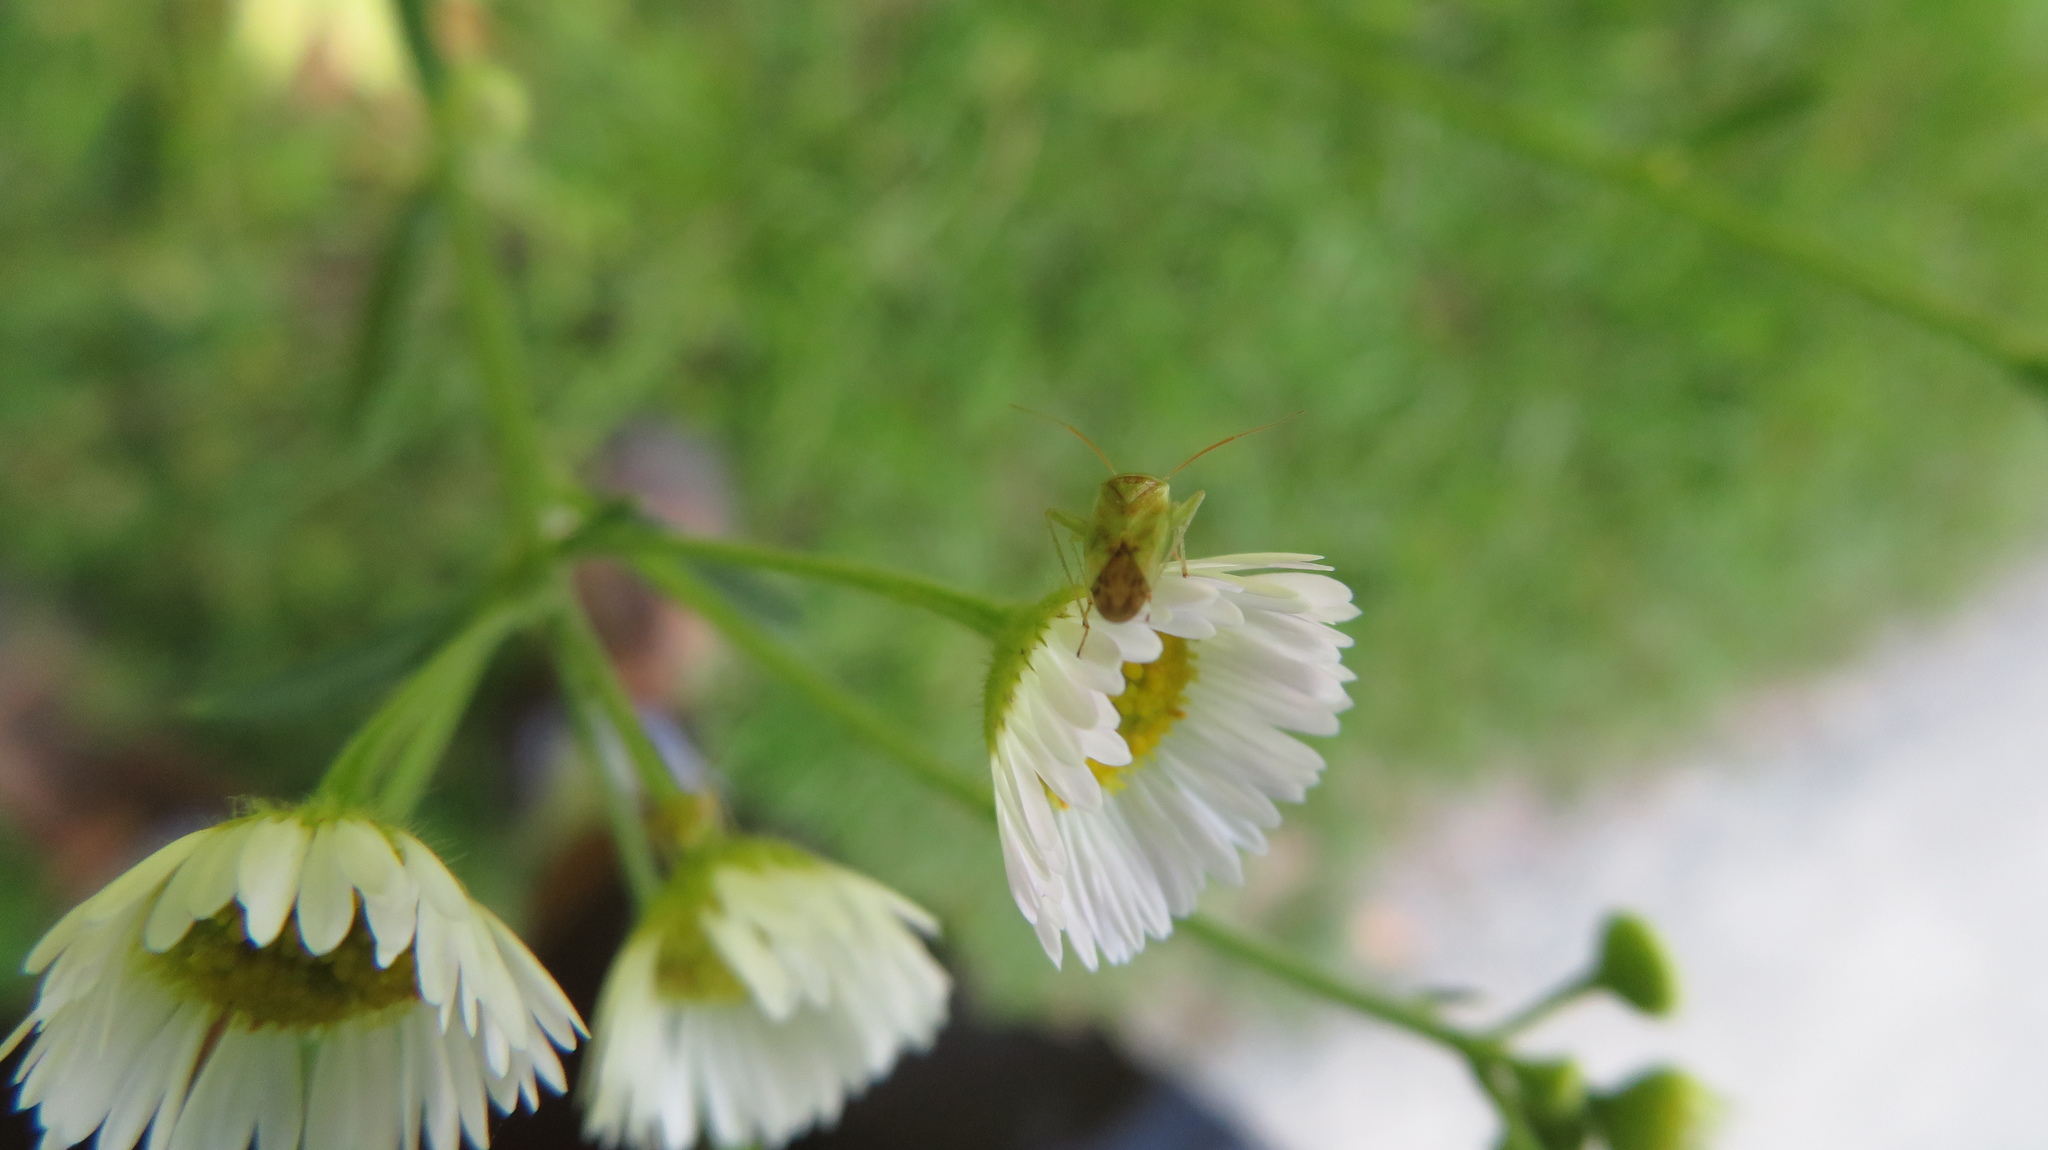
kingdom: Animalia
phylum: Arthropoda
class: Insecta
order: Hemiptera
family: Miridae
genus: Taylorilygus
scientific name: Taylorilygus apicalis
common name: Plant bug
